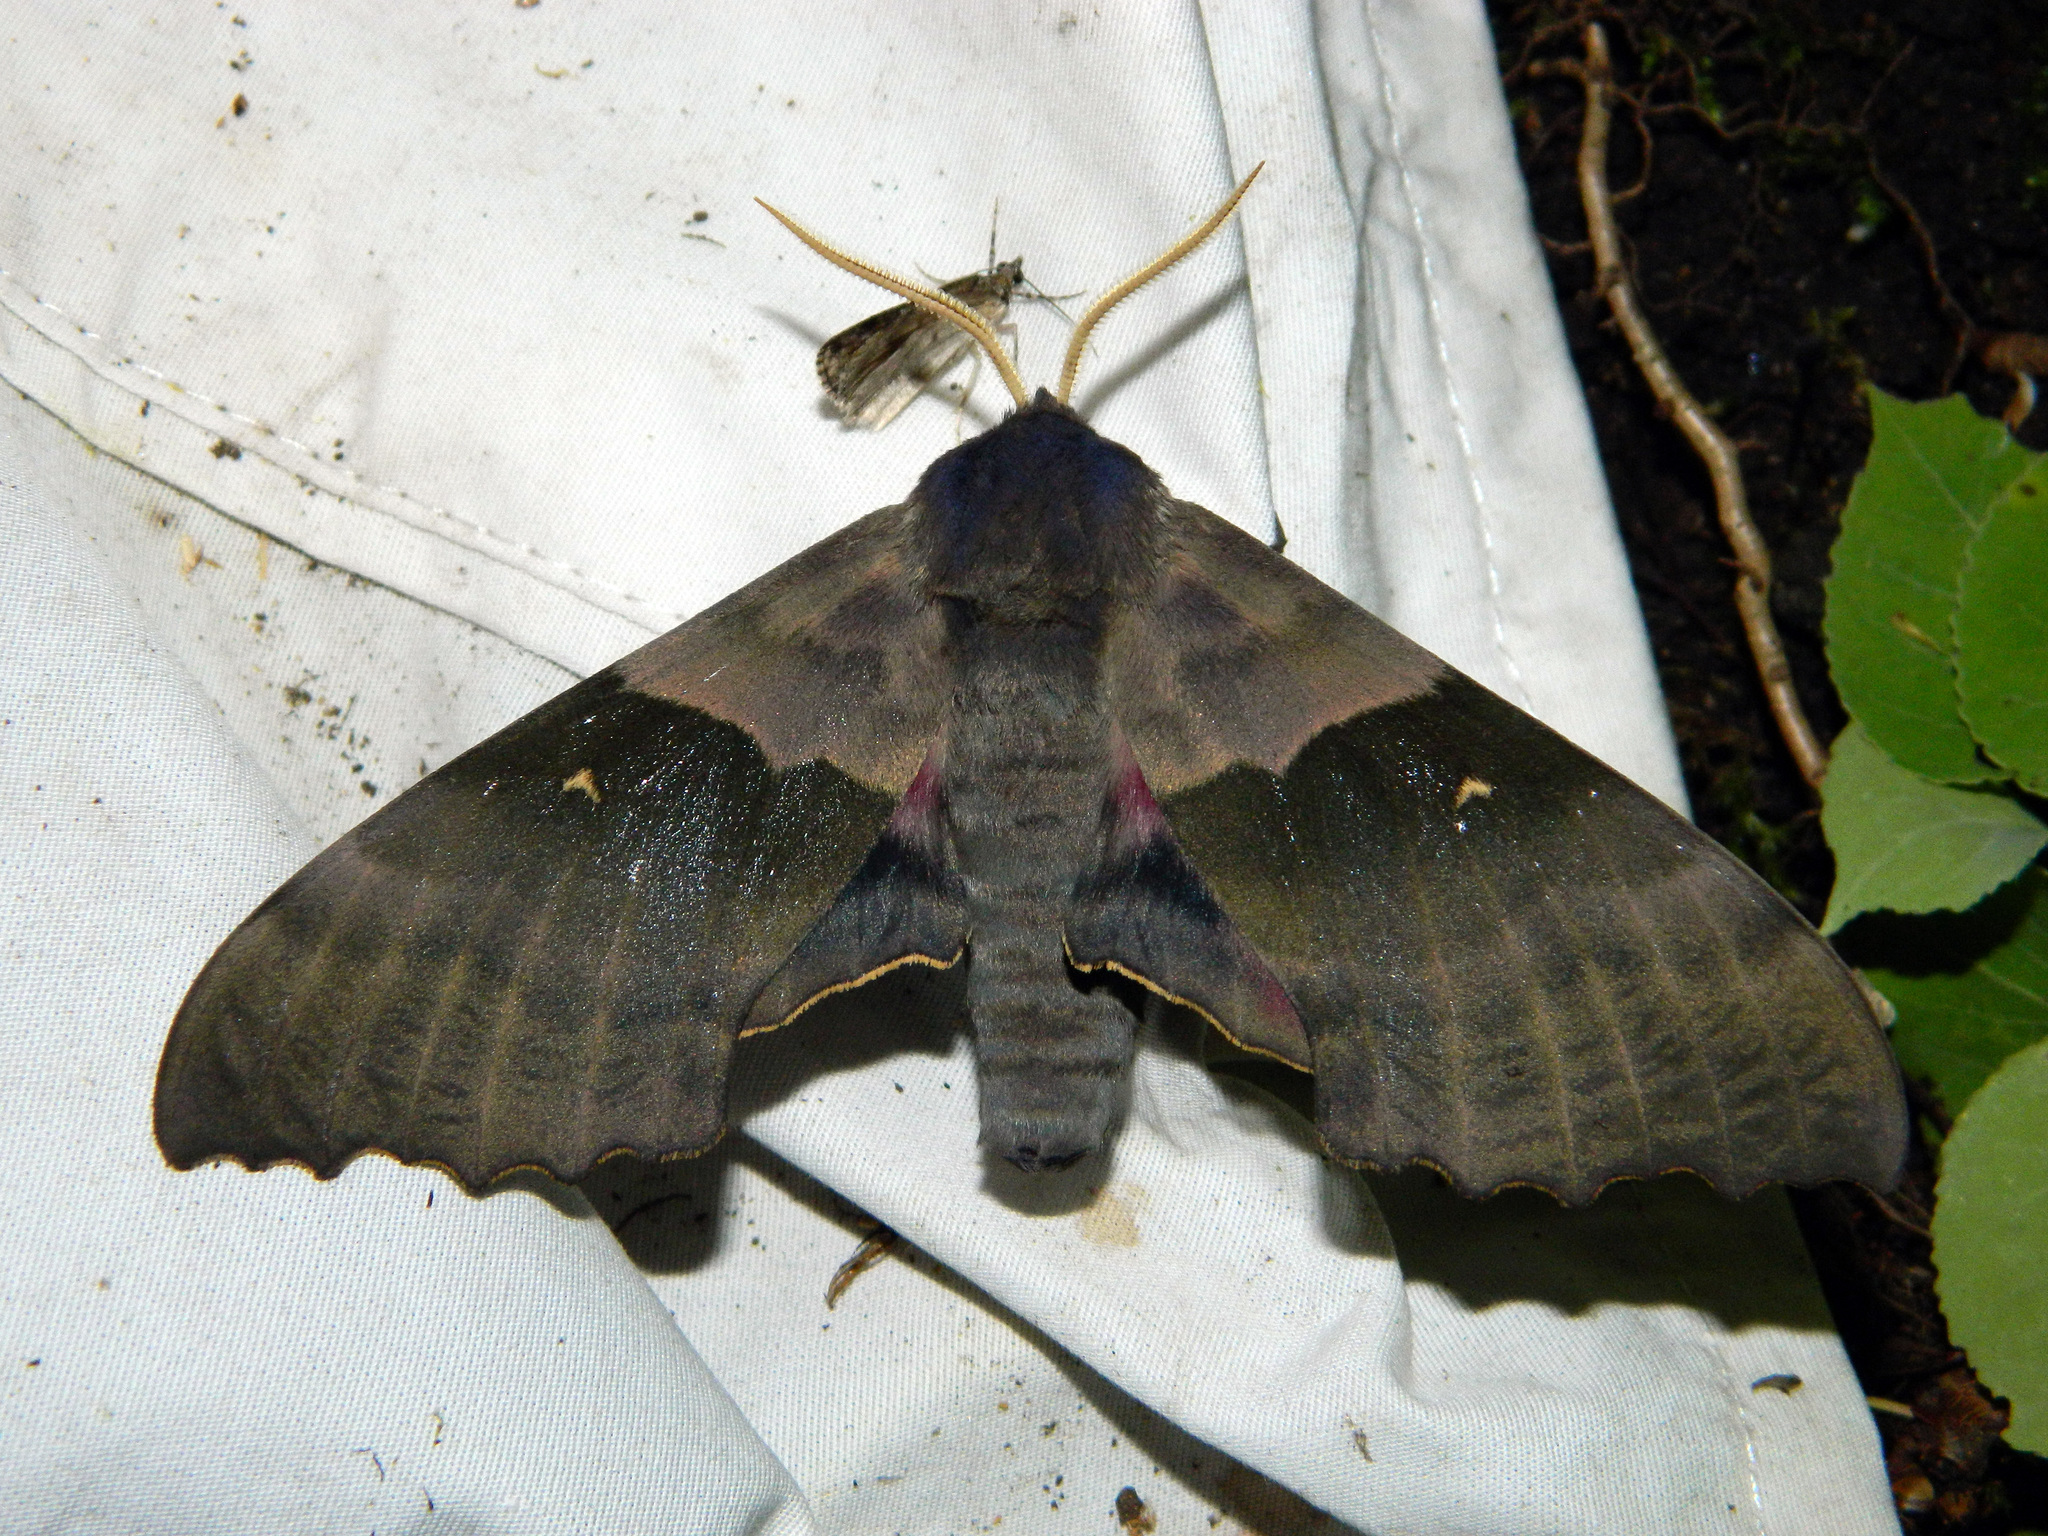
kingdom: Animalia
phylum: Arthropoda
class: Insecta
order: Lepidoptera
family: Sphingidae
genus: Pachysphinx
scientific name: Pachysphinx modesta
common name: Big poplar sphinx
